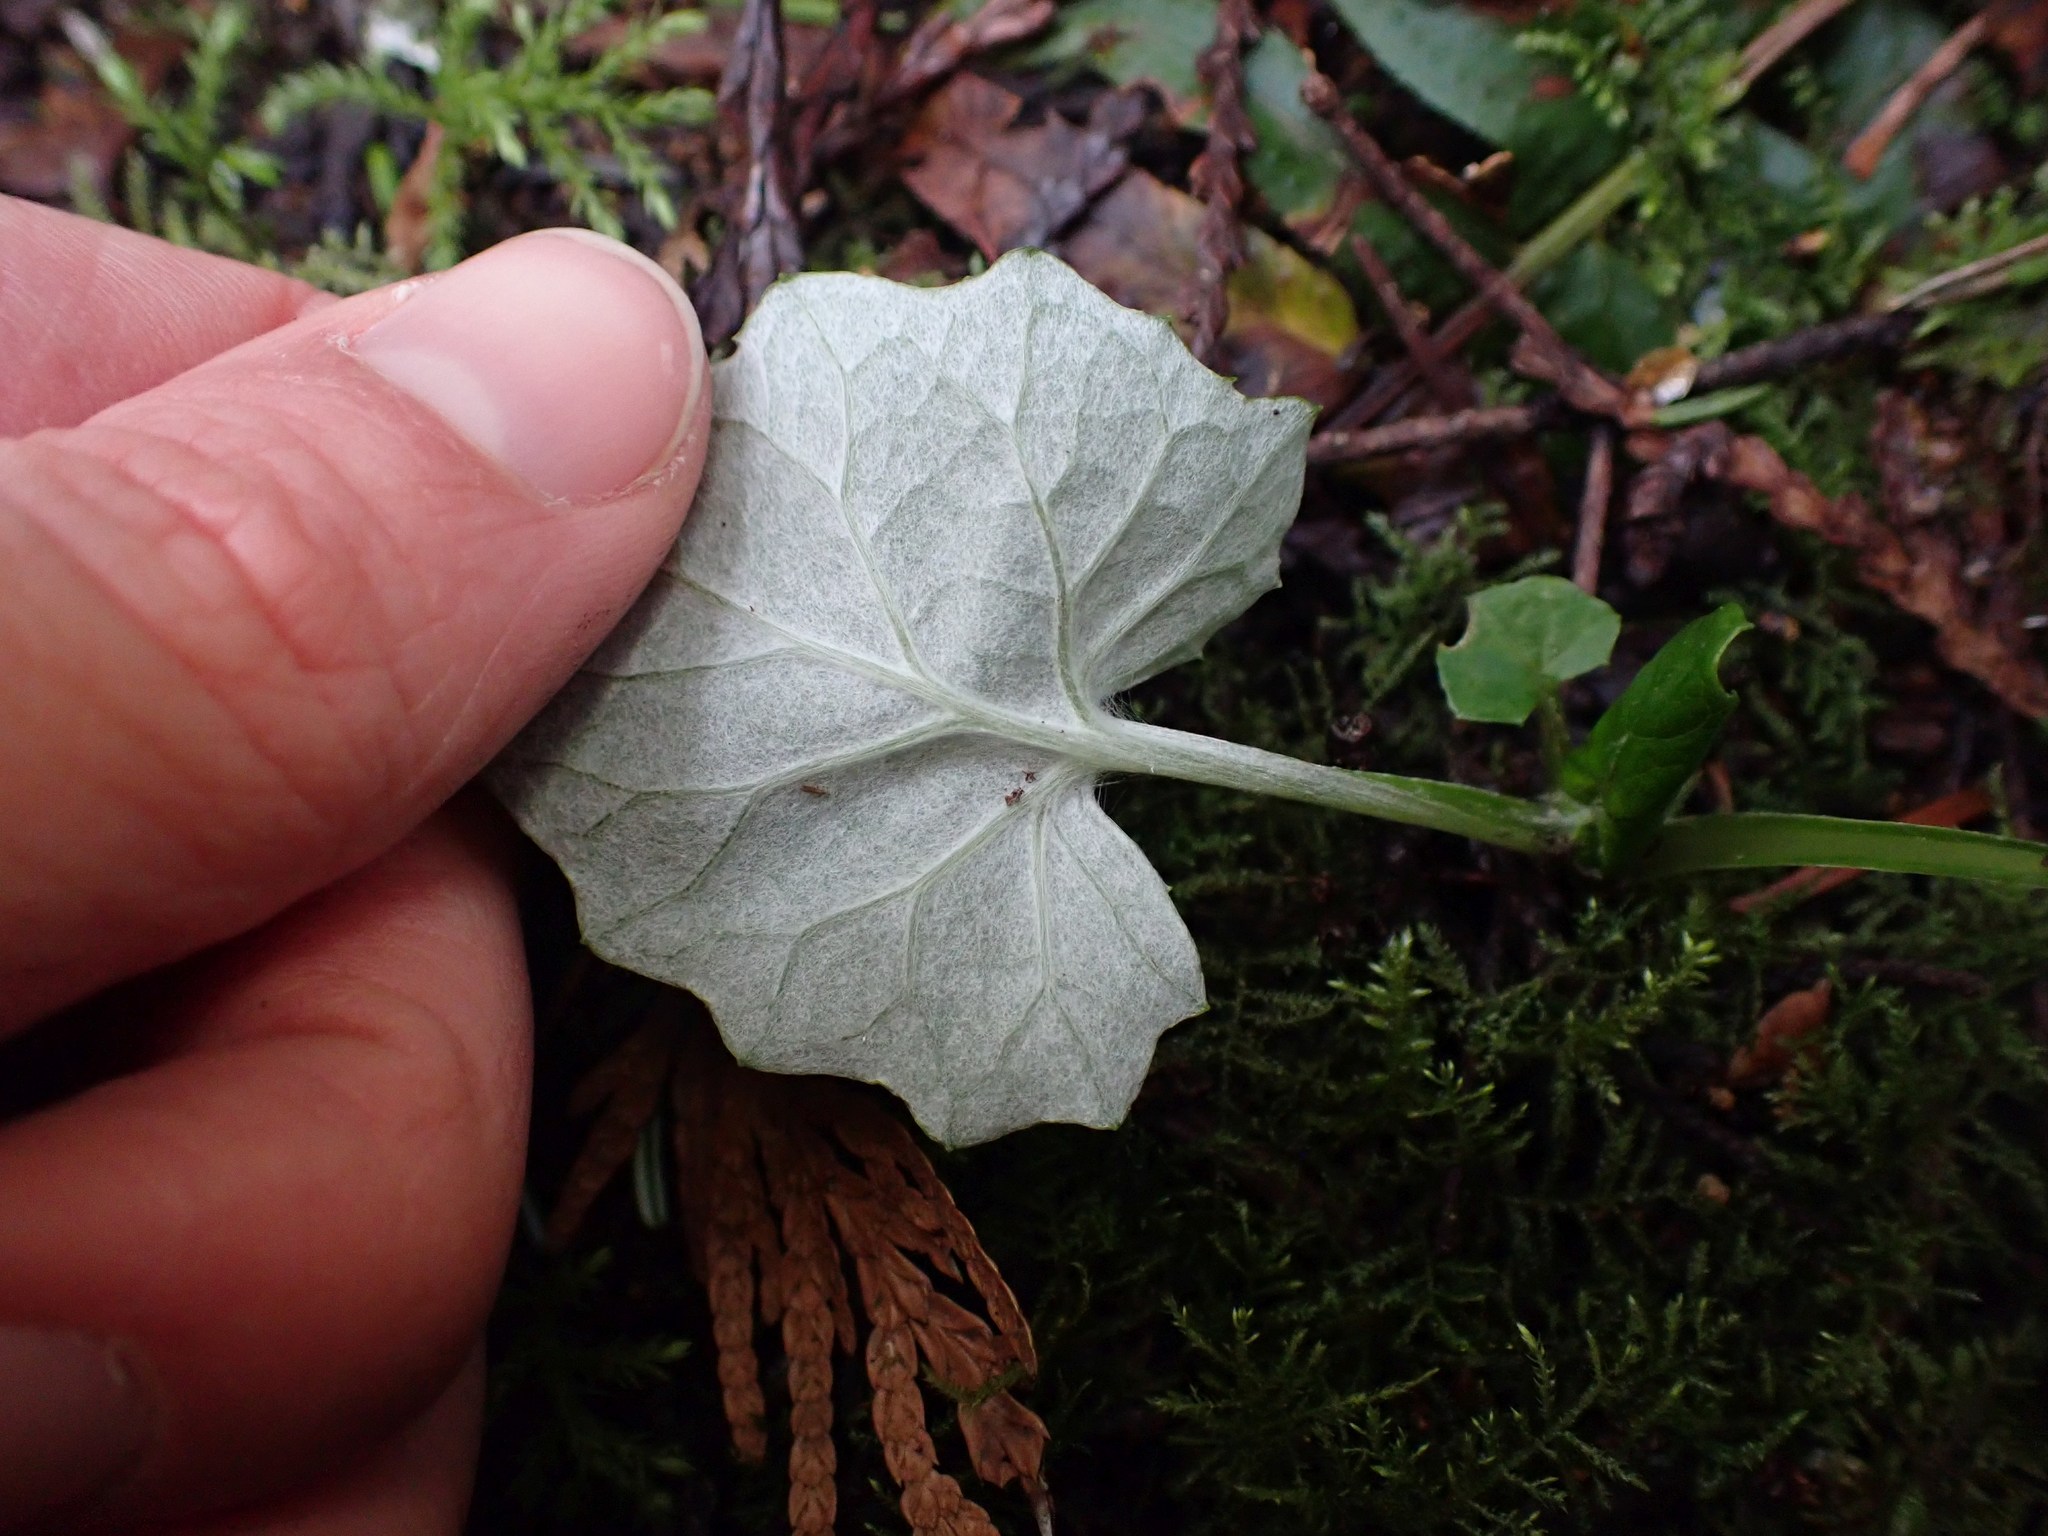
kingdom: Plantae
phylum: Tracheophyta
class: Magnoliopsida
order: Asterales
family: Asteraceae
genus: Adenocaulon
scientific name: Adenocaulon bicolor
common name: Trailplant
